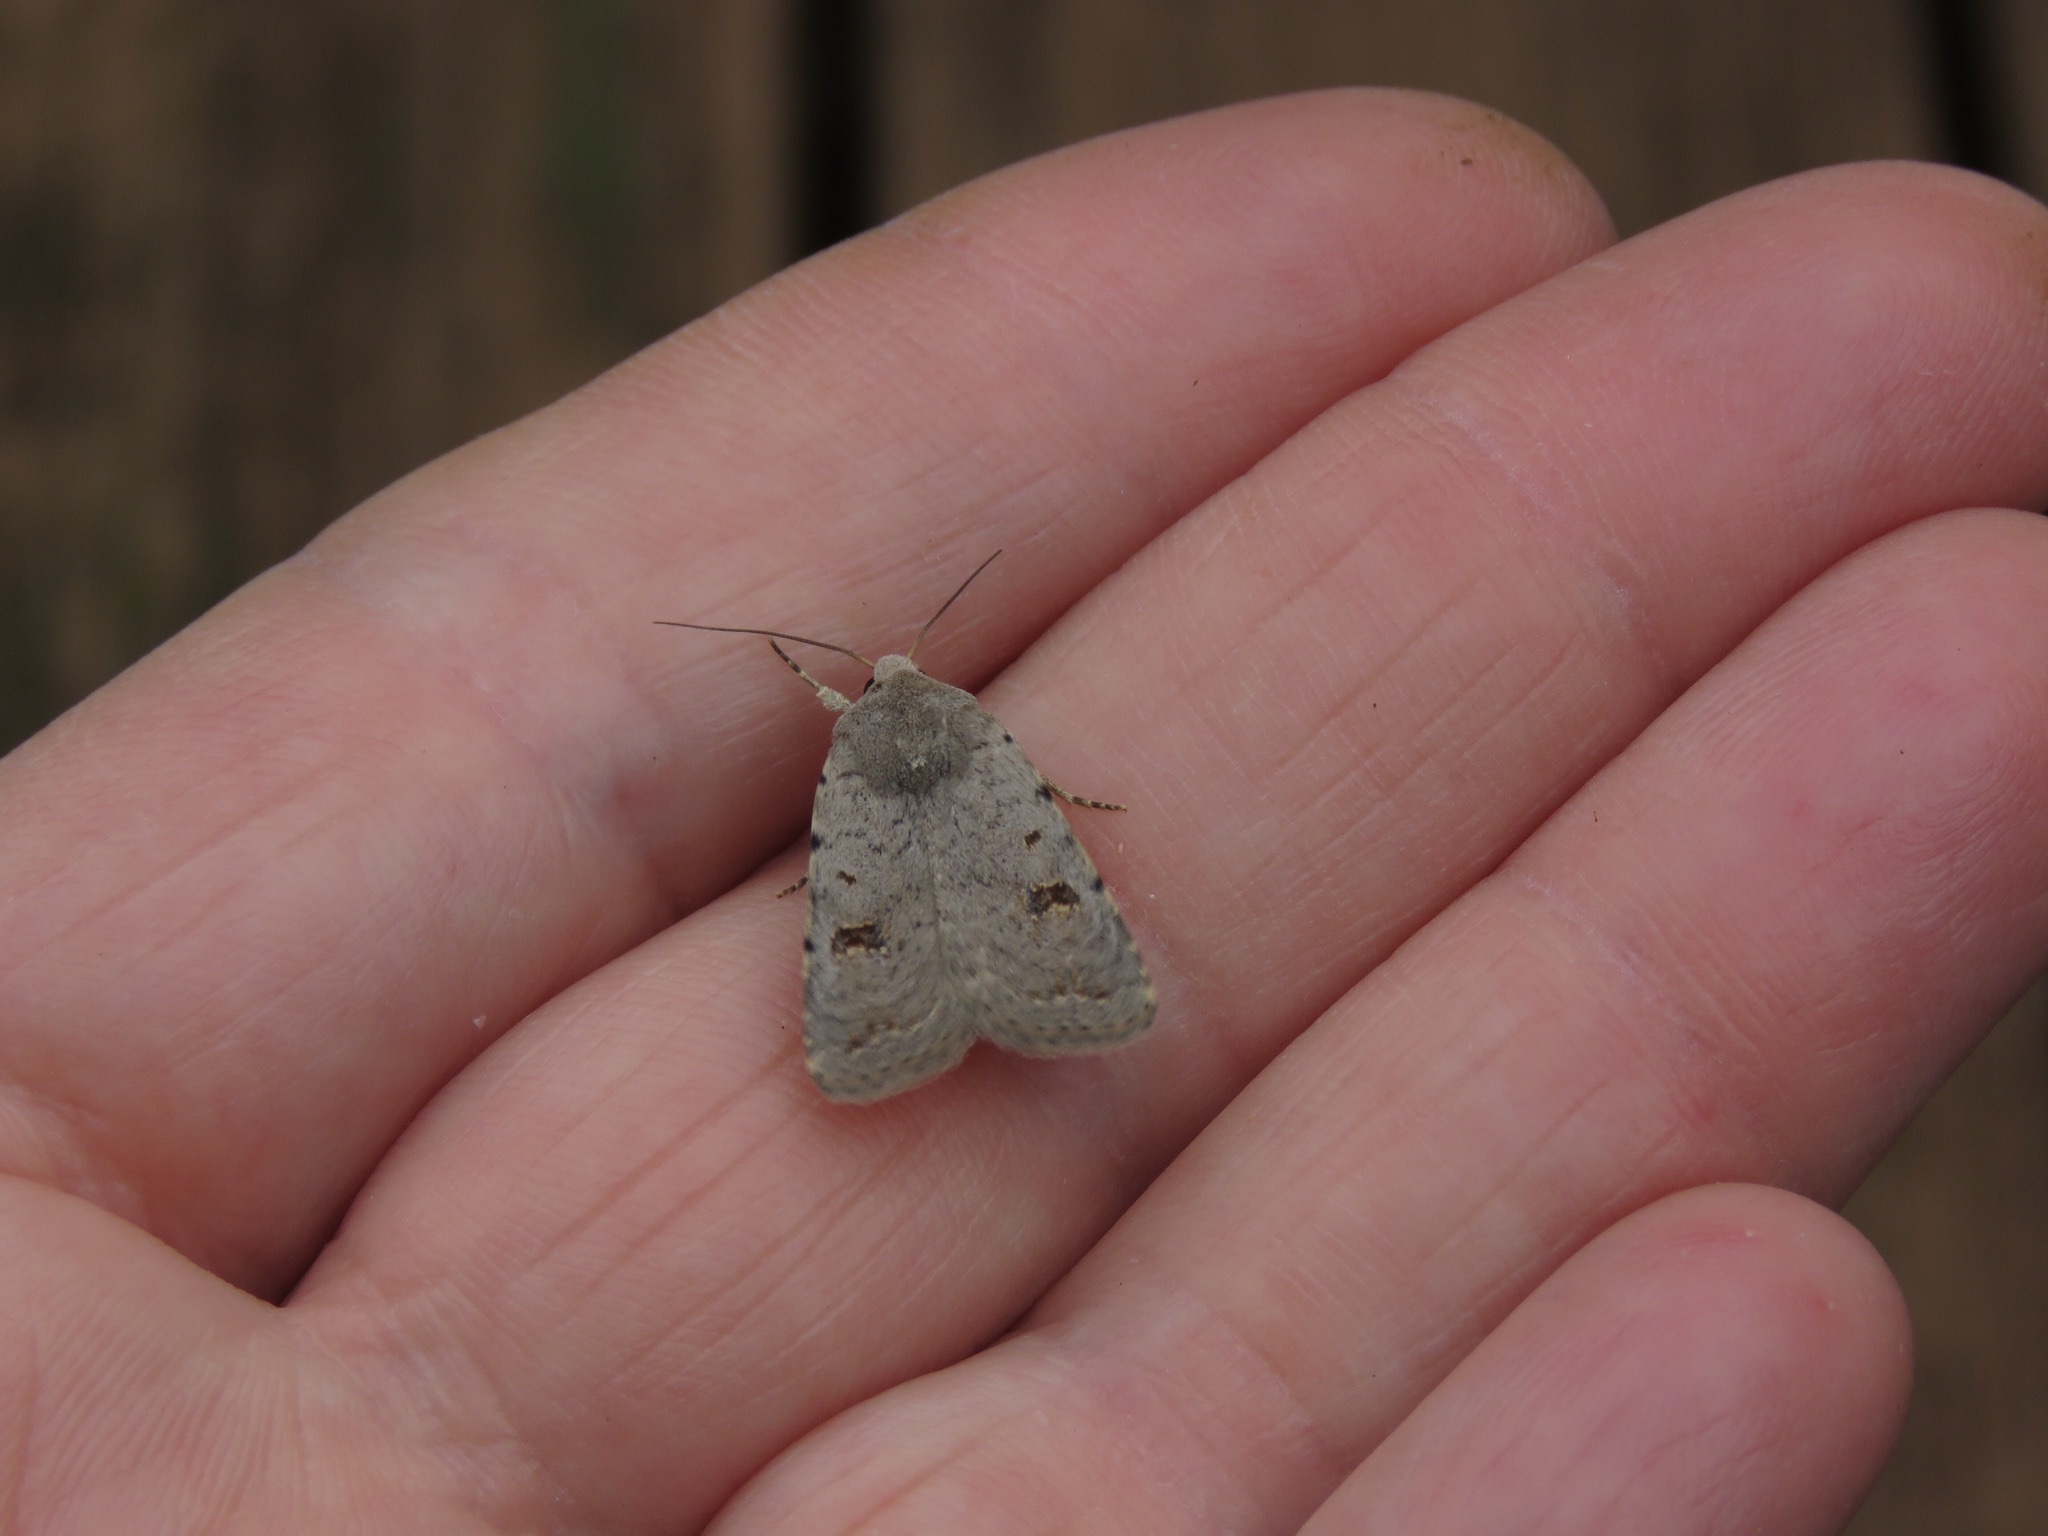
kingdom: Animalia
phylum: Arthropoda
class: Insecta
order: Lepidoptera
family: Noctuidae
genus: Caradrina
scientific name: Caradrina kadenii
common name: Clancy's rustic
